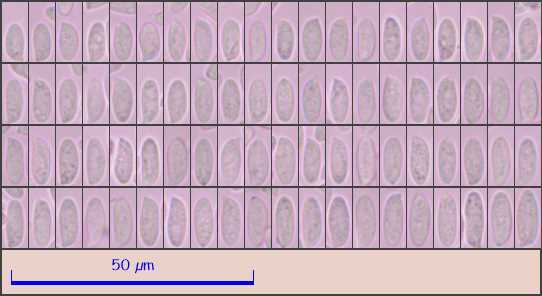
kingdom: Fungi
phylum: Basidiomycota
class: Agaricomycetes
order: Agaricales
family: Physalacriaceae
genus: Flammulina
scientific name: Flammulina elastica
